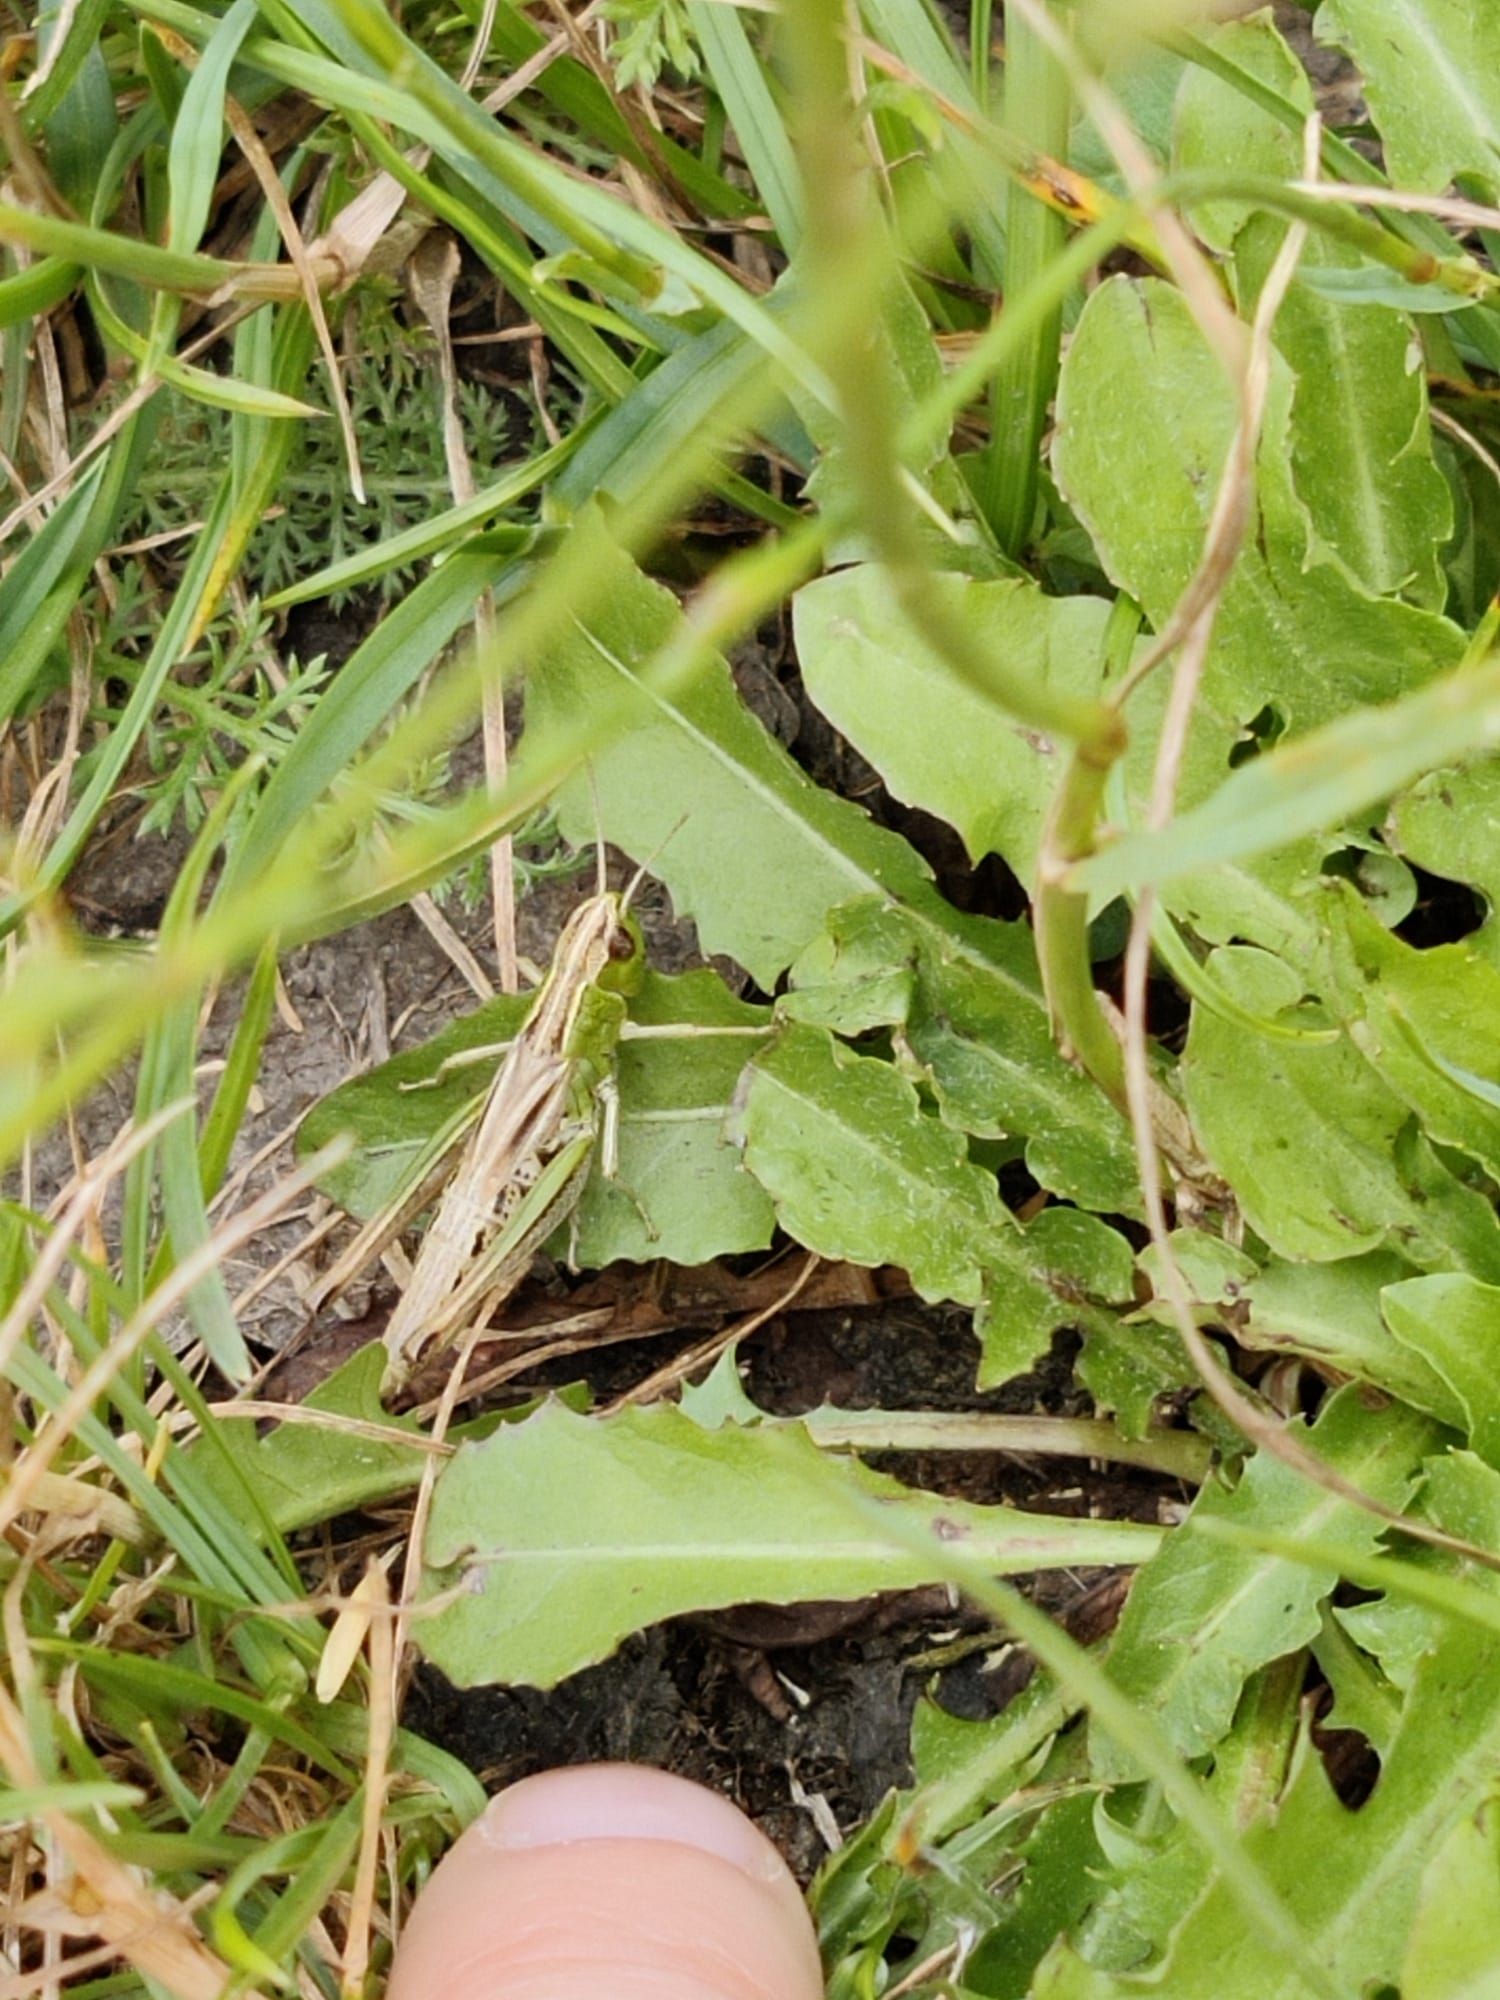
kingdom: Animalia
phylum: Arthropoda
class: Insecta
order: Orthoptera
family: Acrididae
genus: Pseudochorthippus
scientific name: Pseudochorthippus parallelus
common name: Meadow grasshopper
